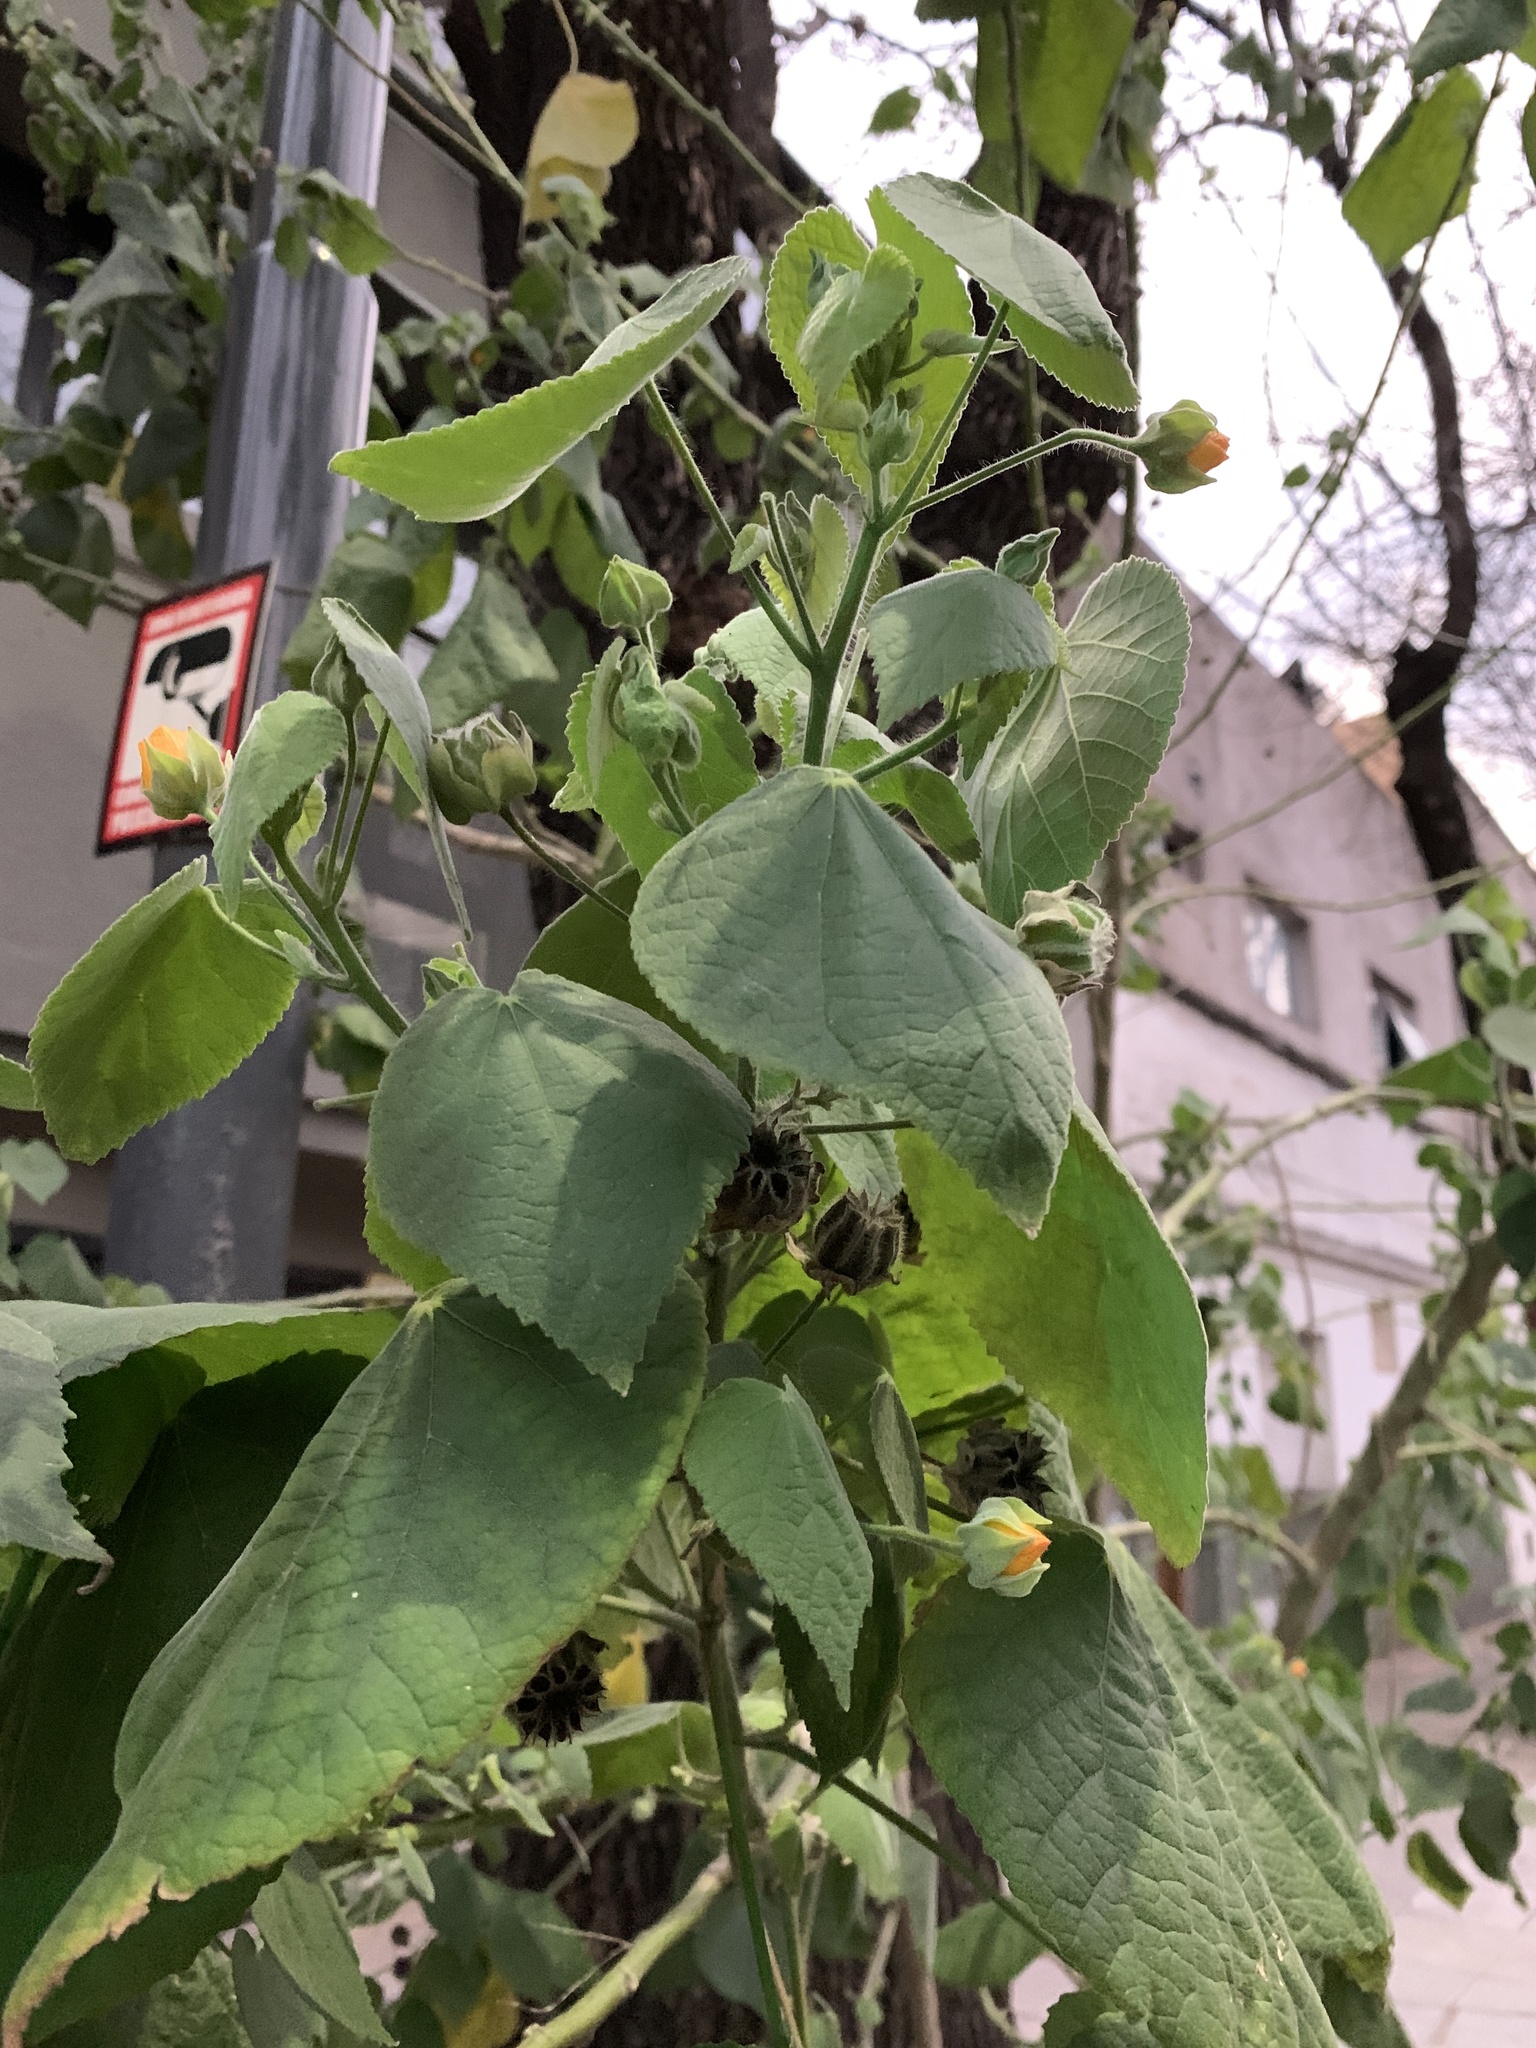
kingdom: Plantae
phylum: Tracheophyta
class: Magnoliopsida
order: Malvales
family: Malvaceae
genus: Abutilon
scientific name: Abutilon grandifolium
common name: Hairy abutilon
